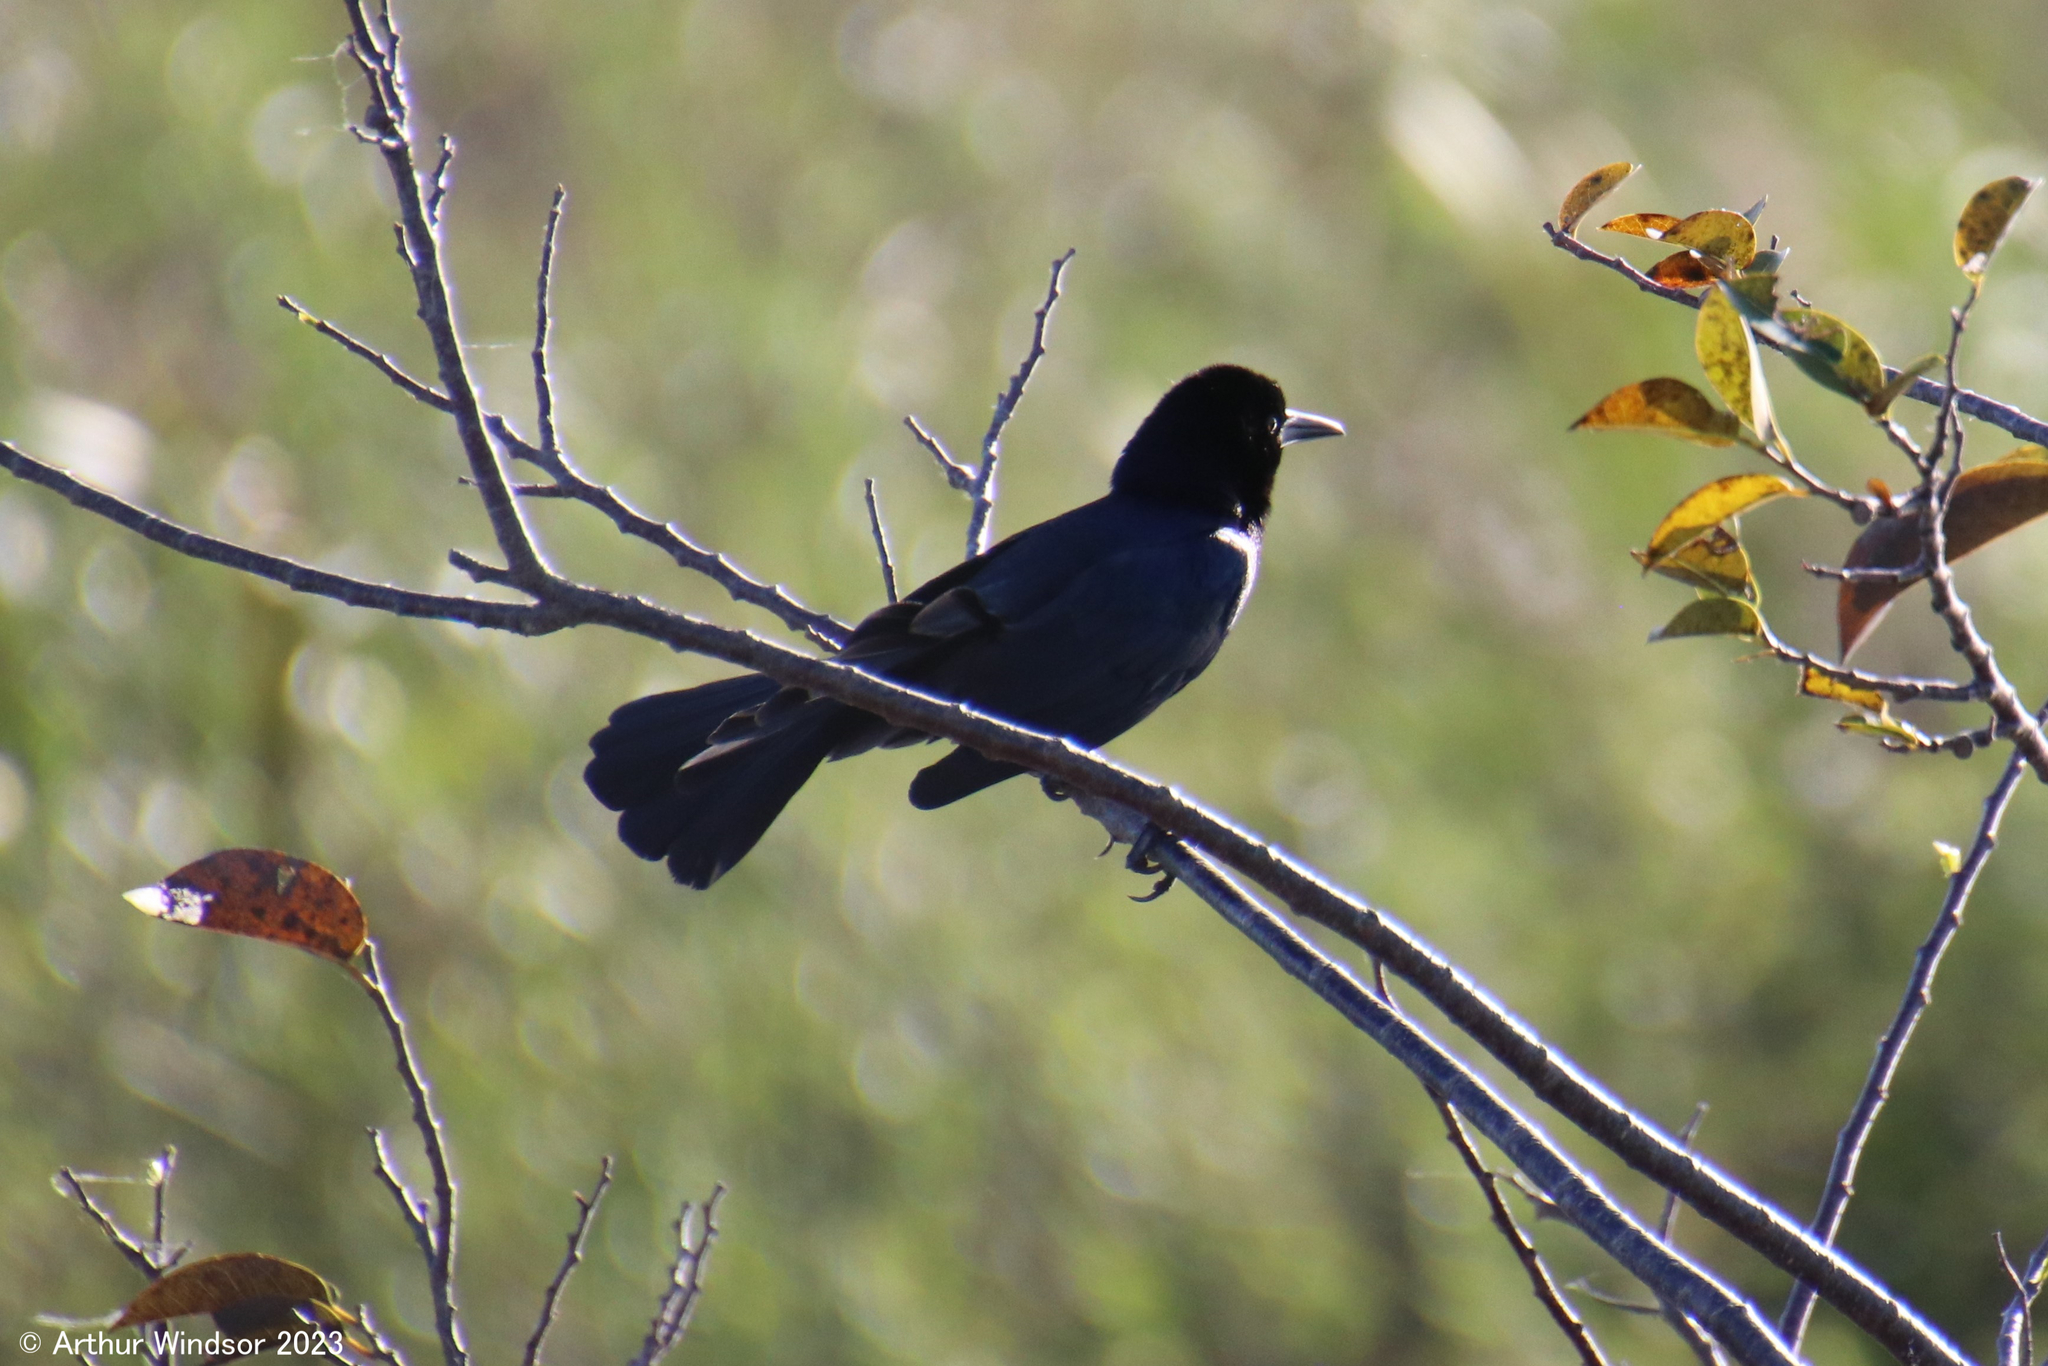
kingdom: Animalia
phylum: Chordata
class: Aves
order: Passeriformes
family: Icteridae
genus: Quiscalus
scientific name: Quiscalus major
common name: Boat-tailed grackle
